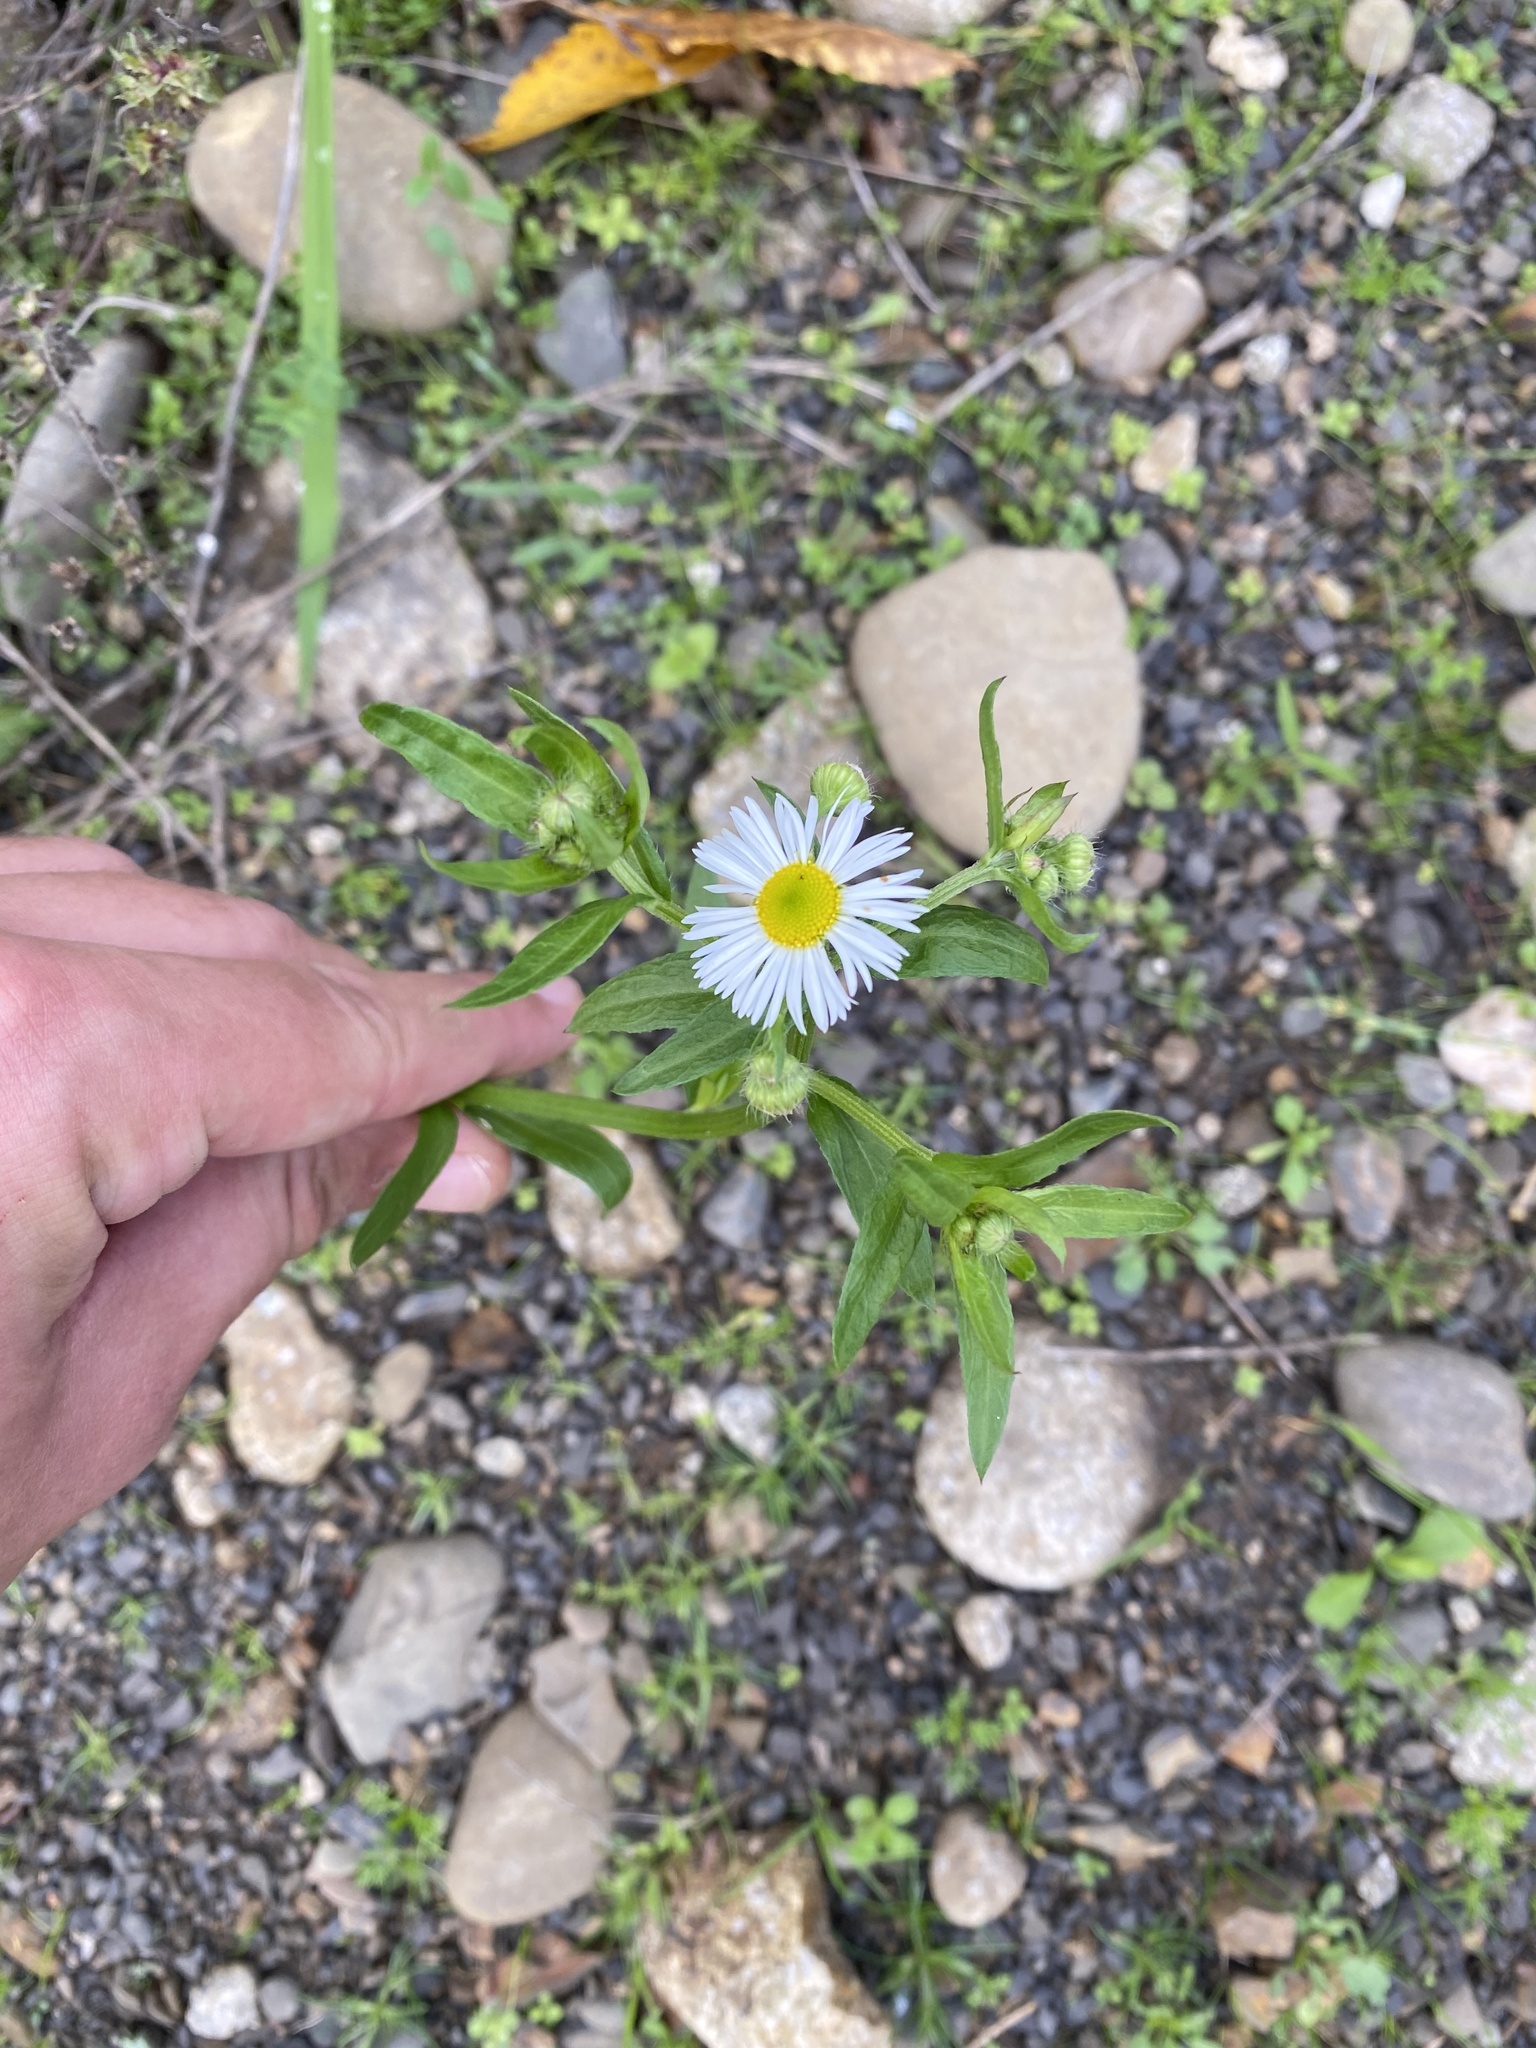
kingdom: Plantae
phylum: Tracheophyta
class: Magnoliopsida
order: Asterales
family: Asteraceae
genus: Erigeron
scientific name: Erigeron annuus
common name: Tall fleabane
